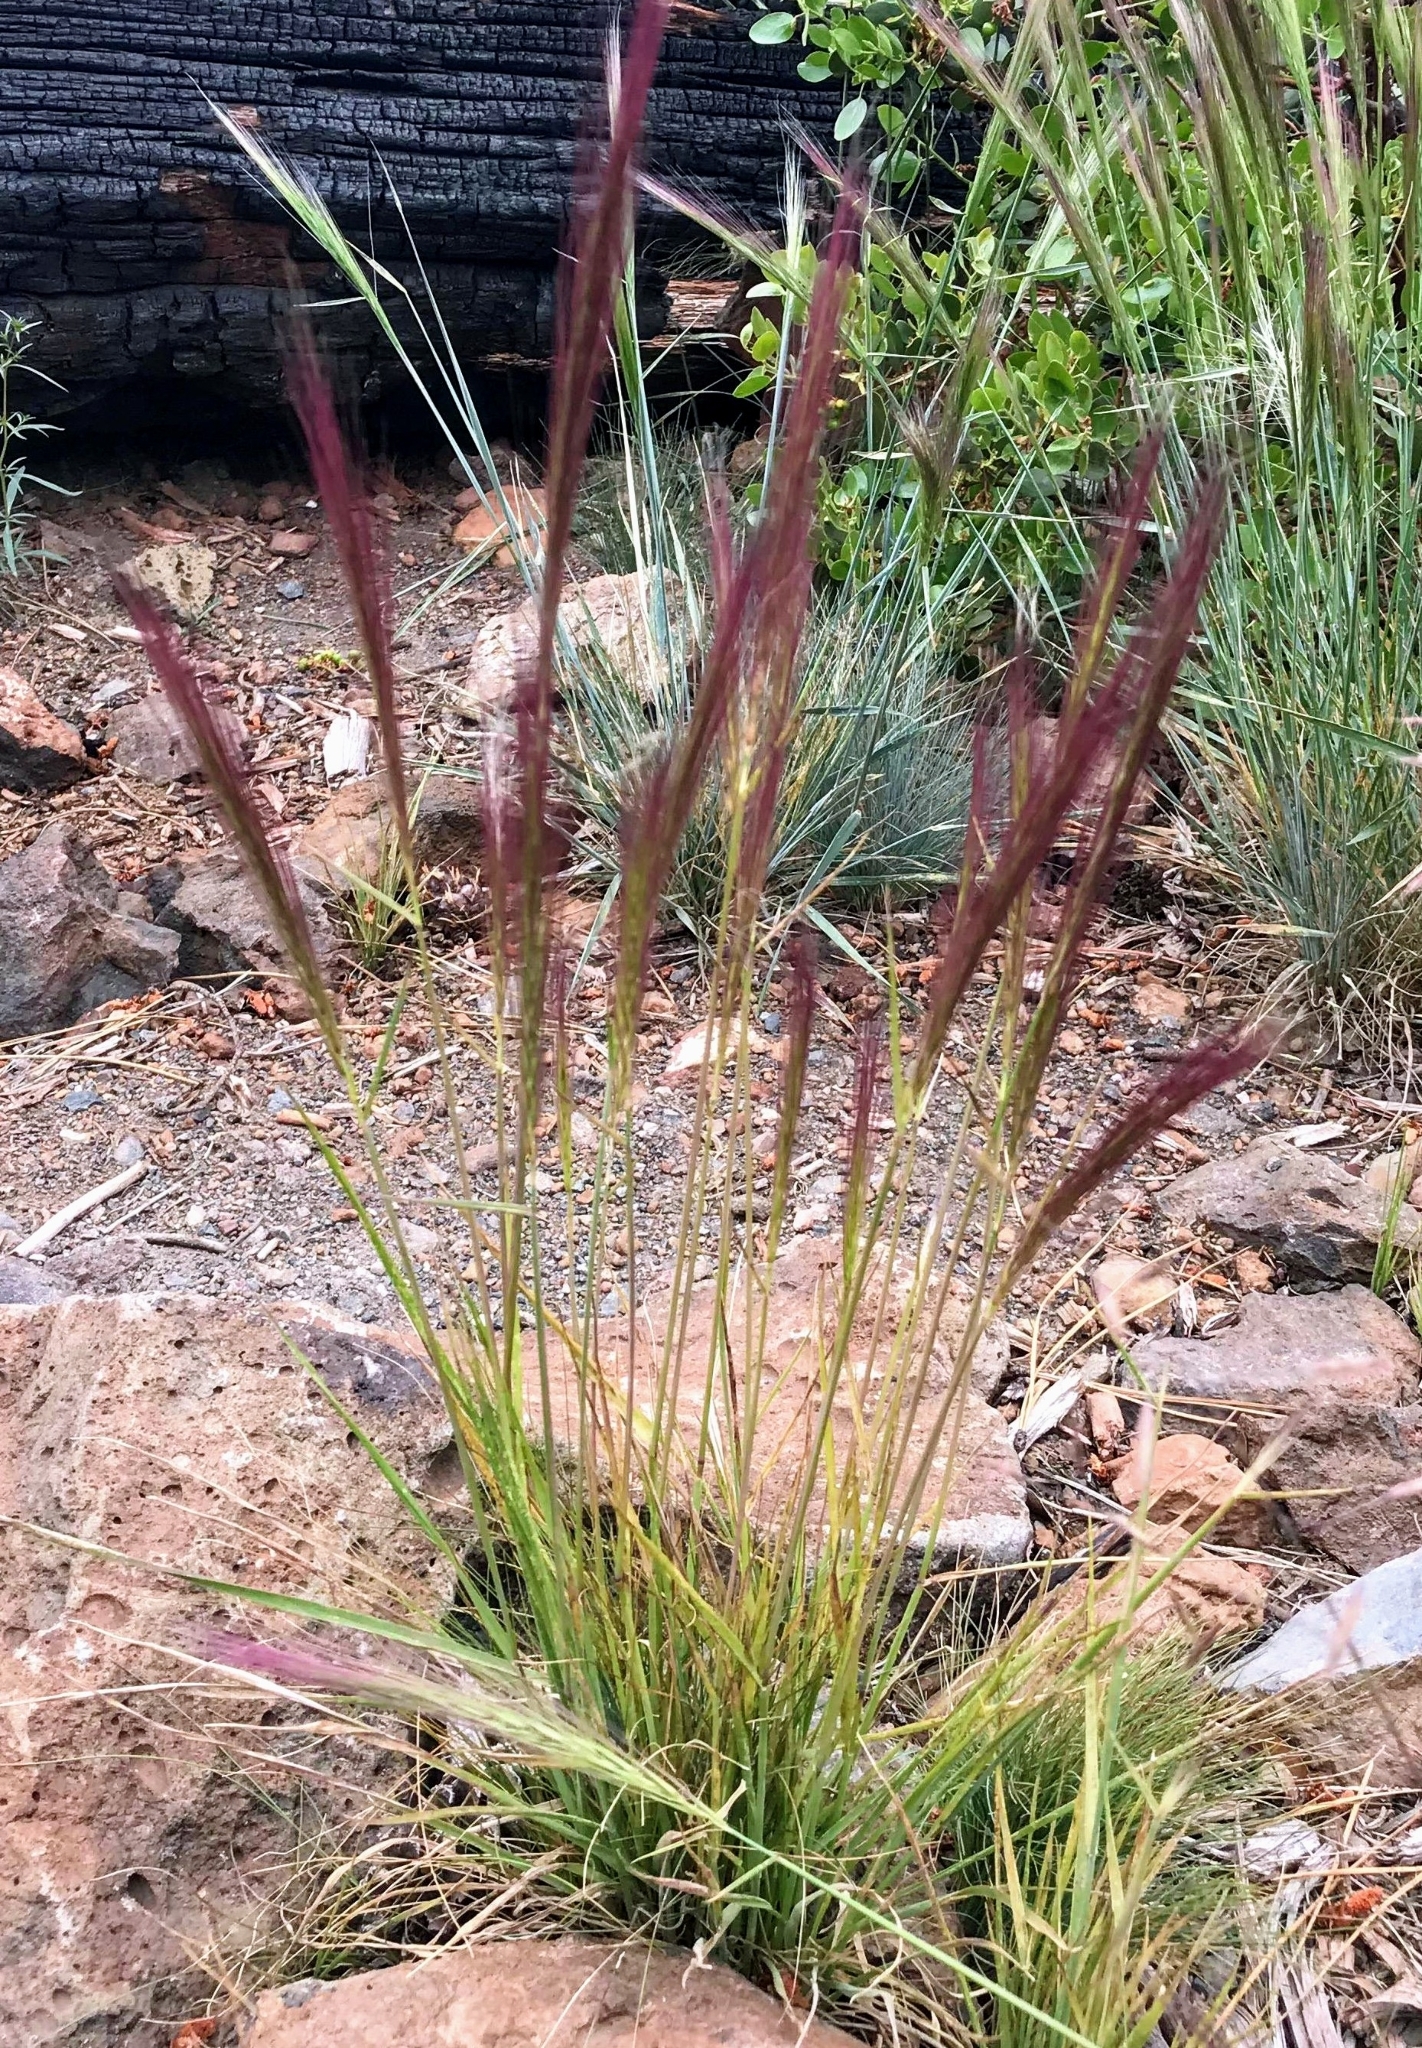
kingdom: Plantae
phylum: Tracheophyta
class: Liliopsida
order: Poales
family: Poaceae
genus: Elymus
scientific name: Elymus elymoides
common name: Bottlebrush squirreltail
